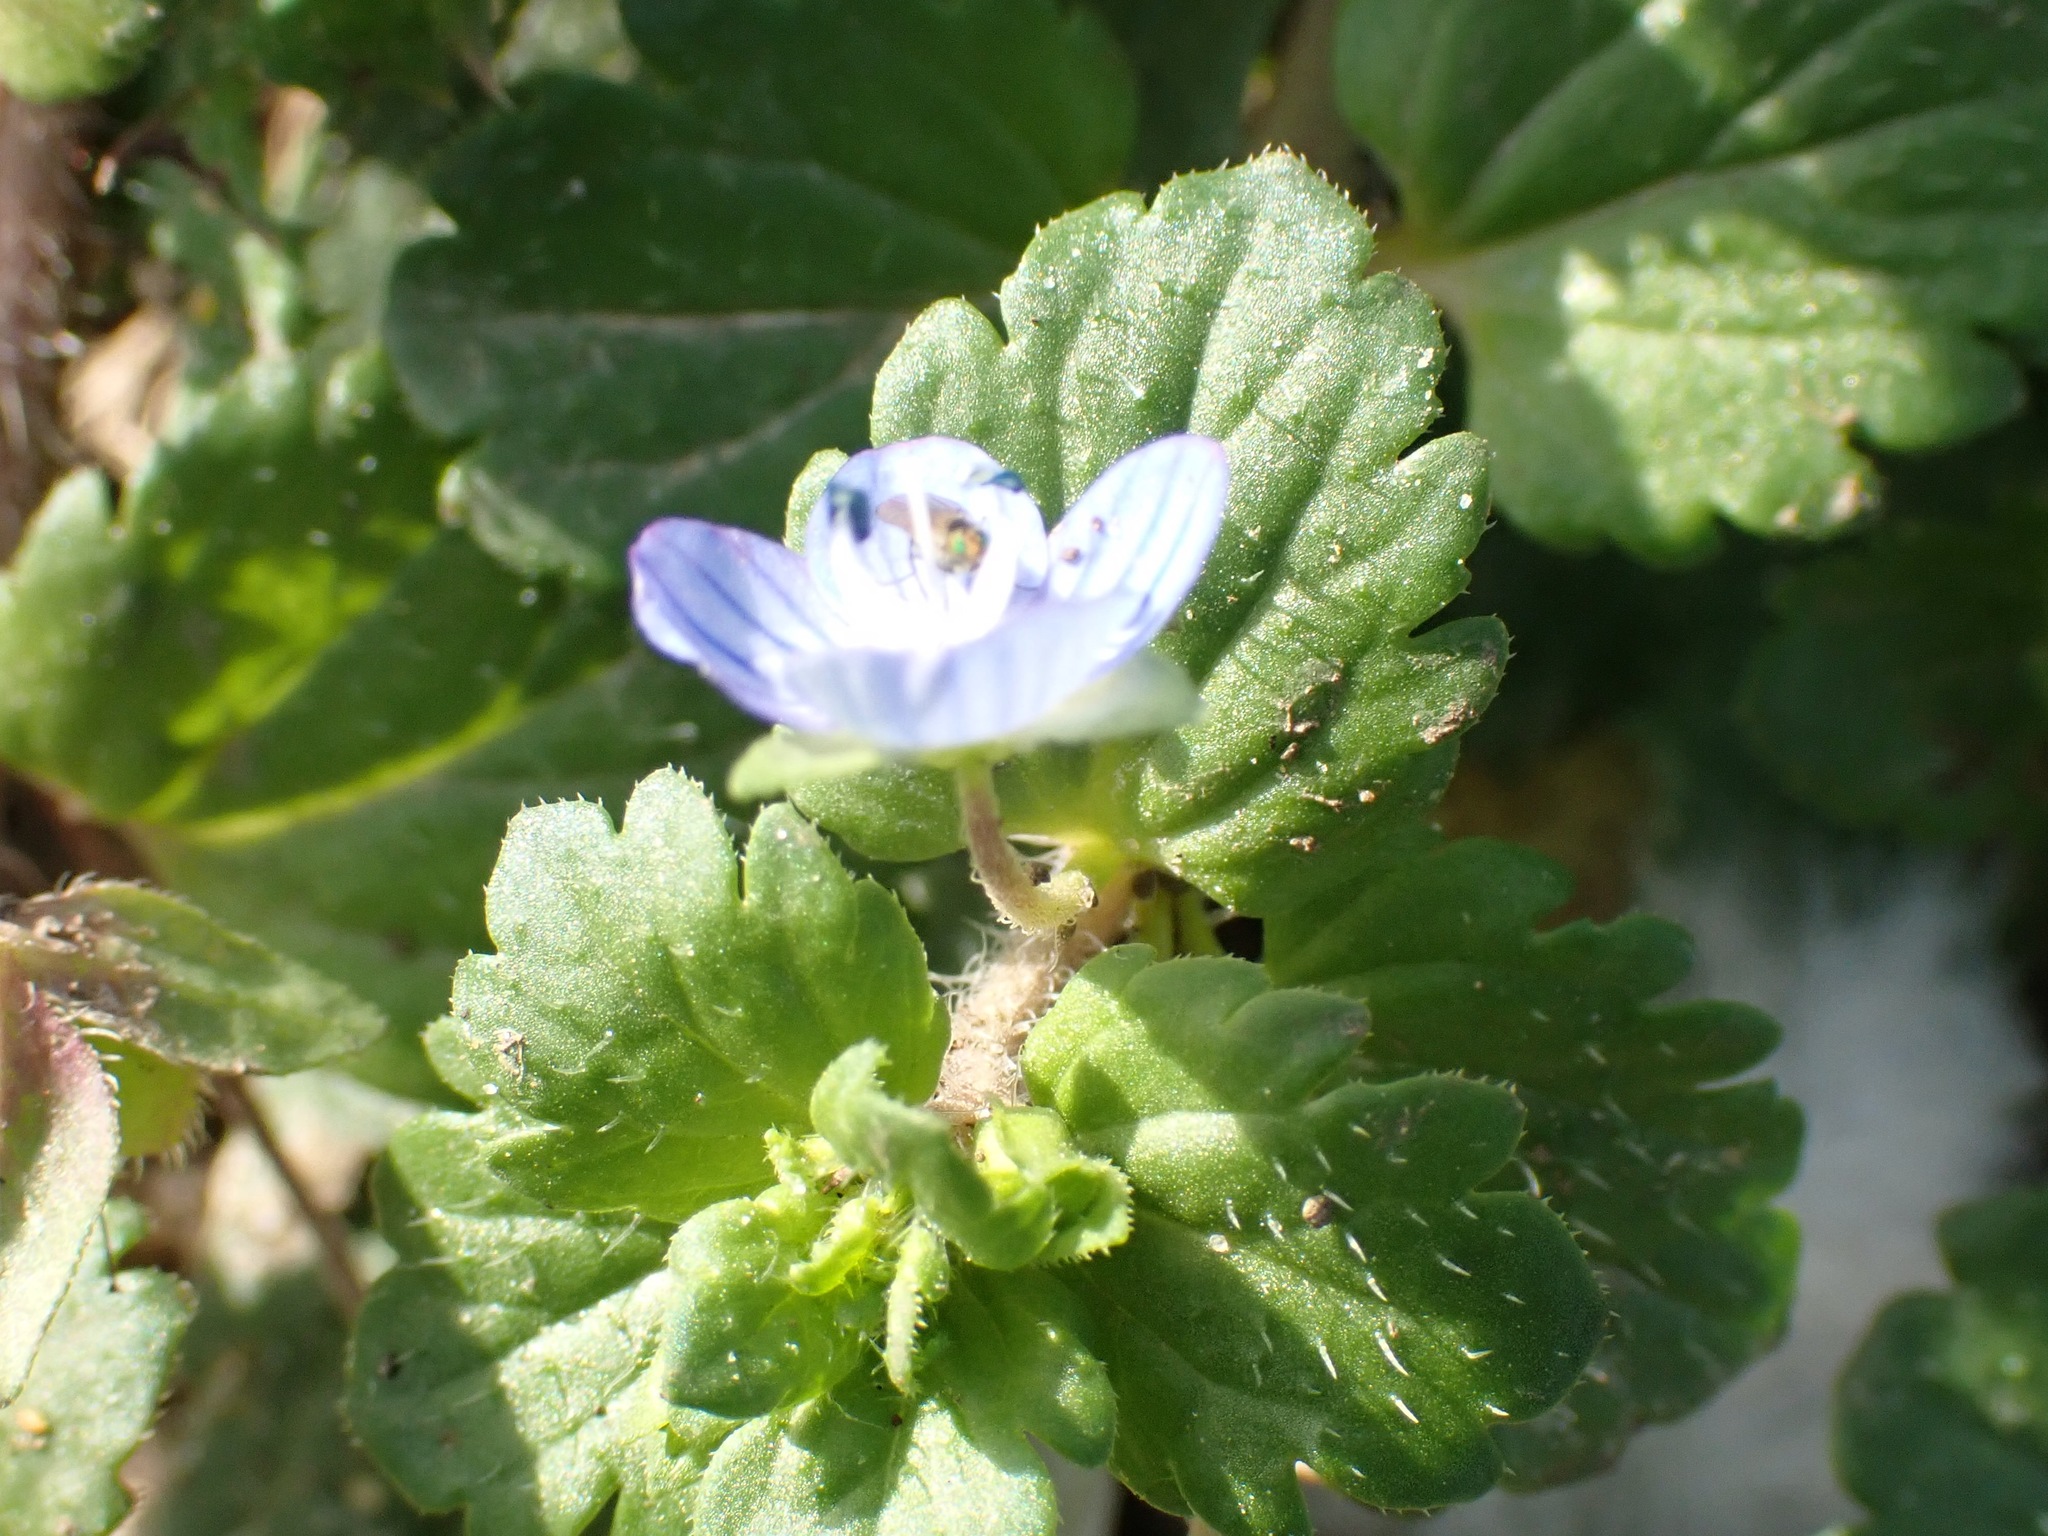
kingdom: Plantae
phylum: Tracheophyta
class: Magnoliopsida
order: Lamiales
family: Plantaginaceae
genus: Veronica
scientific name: Veronica persica
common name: Common field-speedwell
